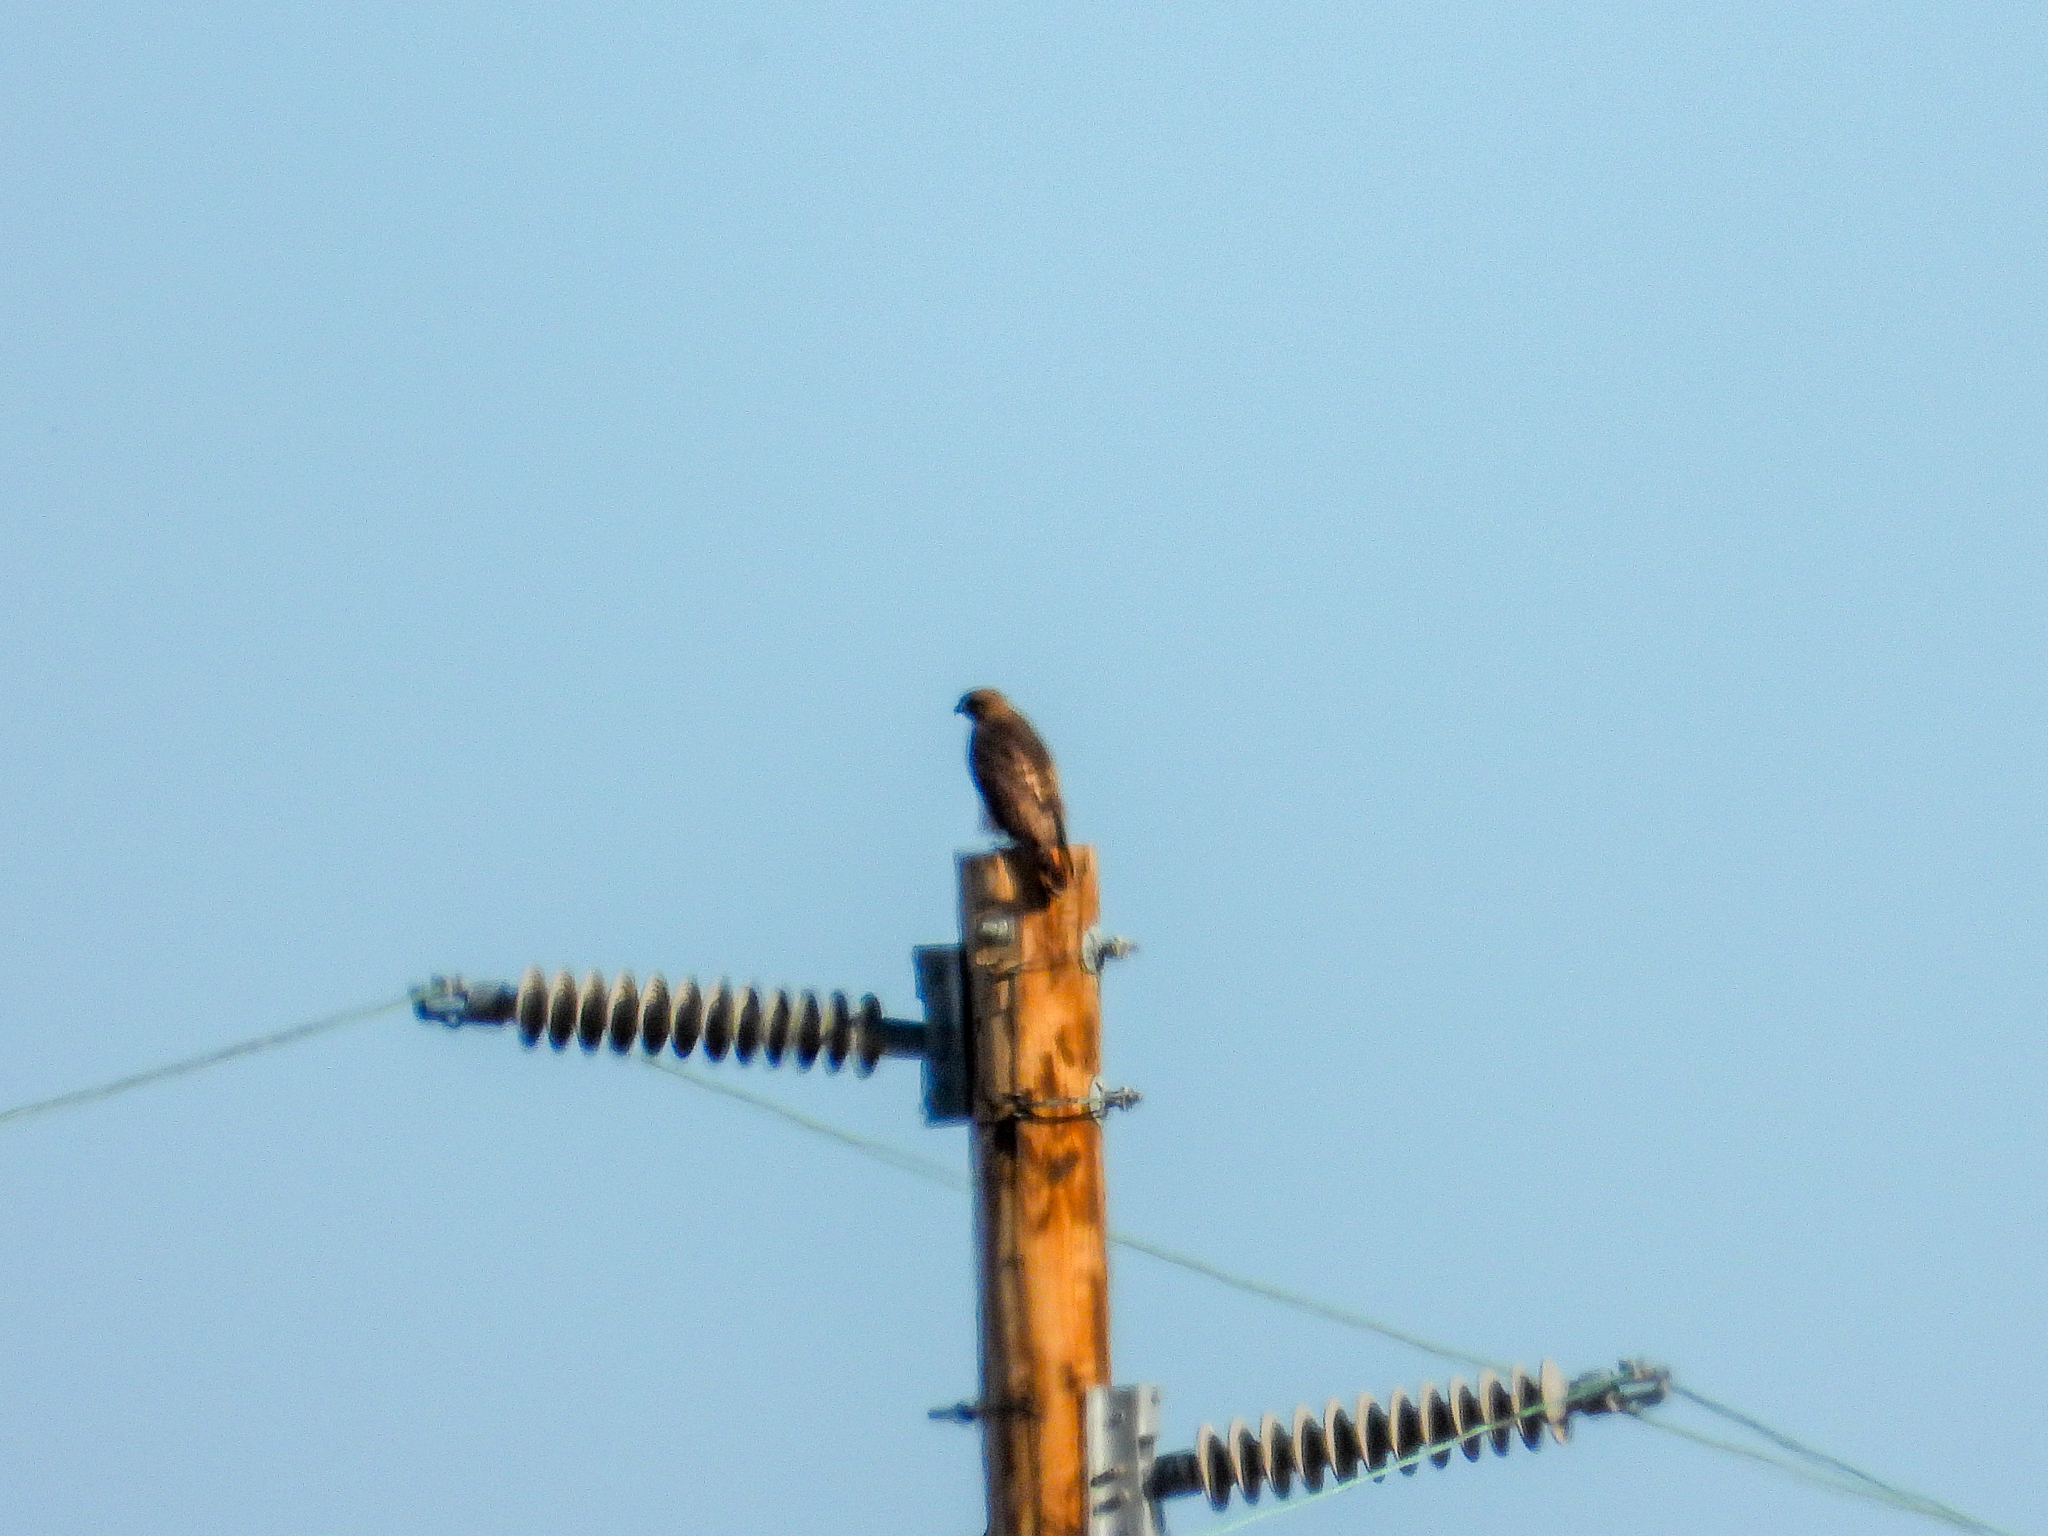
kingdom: Animalia
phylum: Chordata
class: Aves
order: Accipitriformes
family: Accipitridae
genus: Buteo
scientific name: Buteo jamaicensis
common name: Red-tailed hawk
